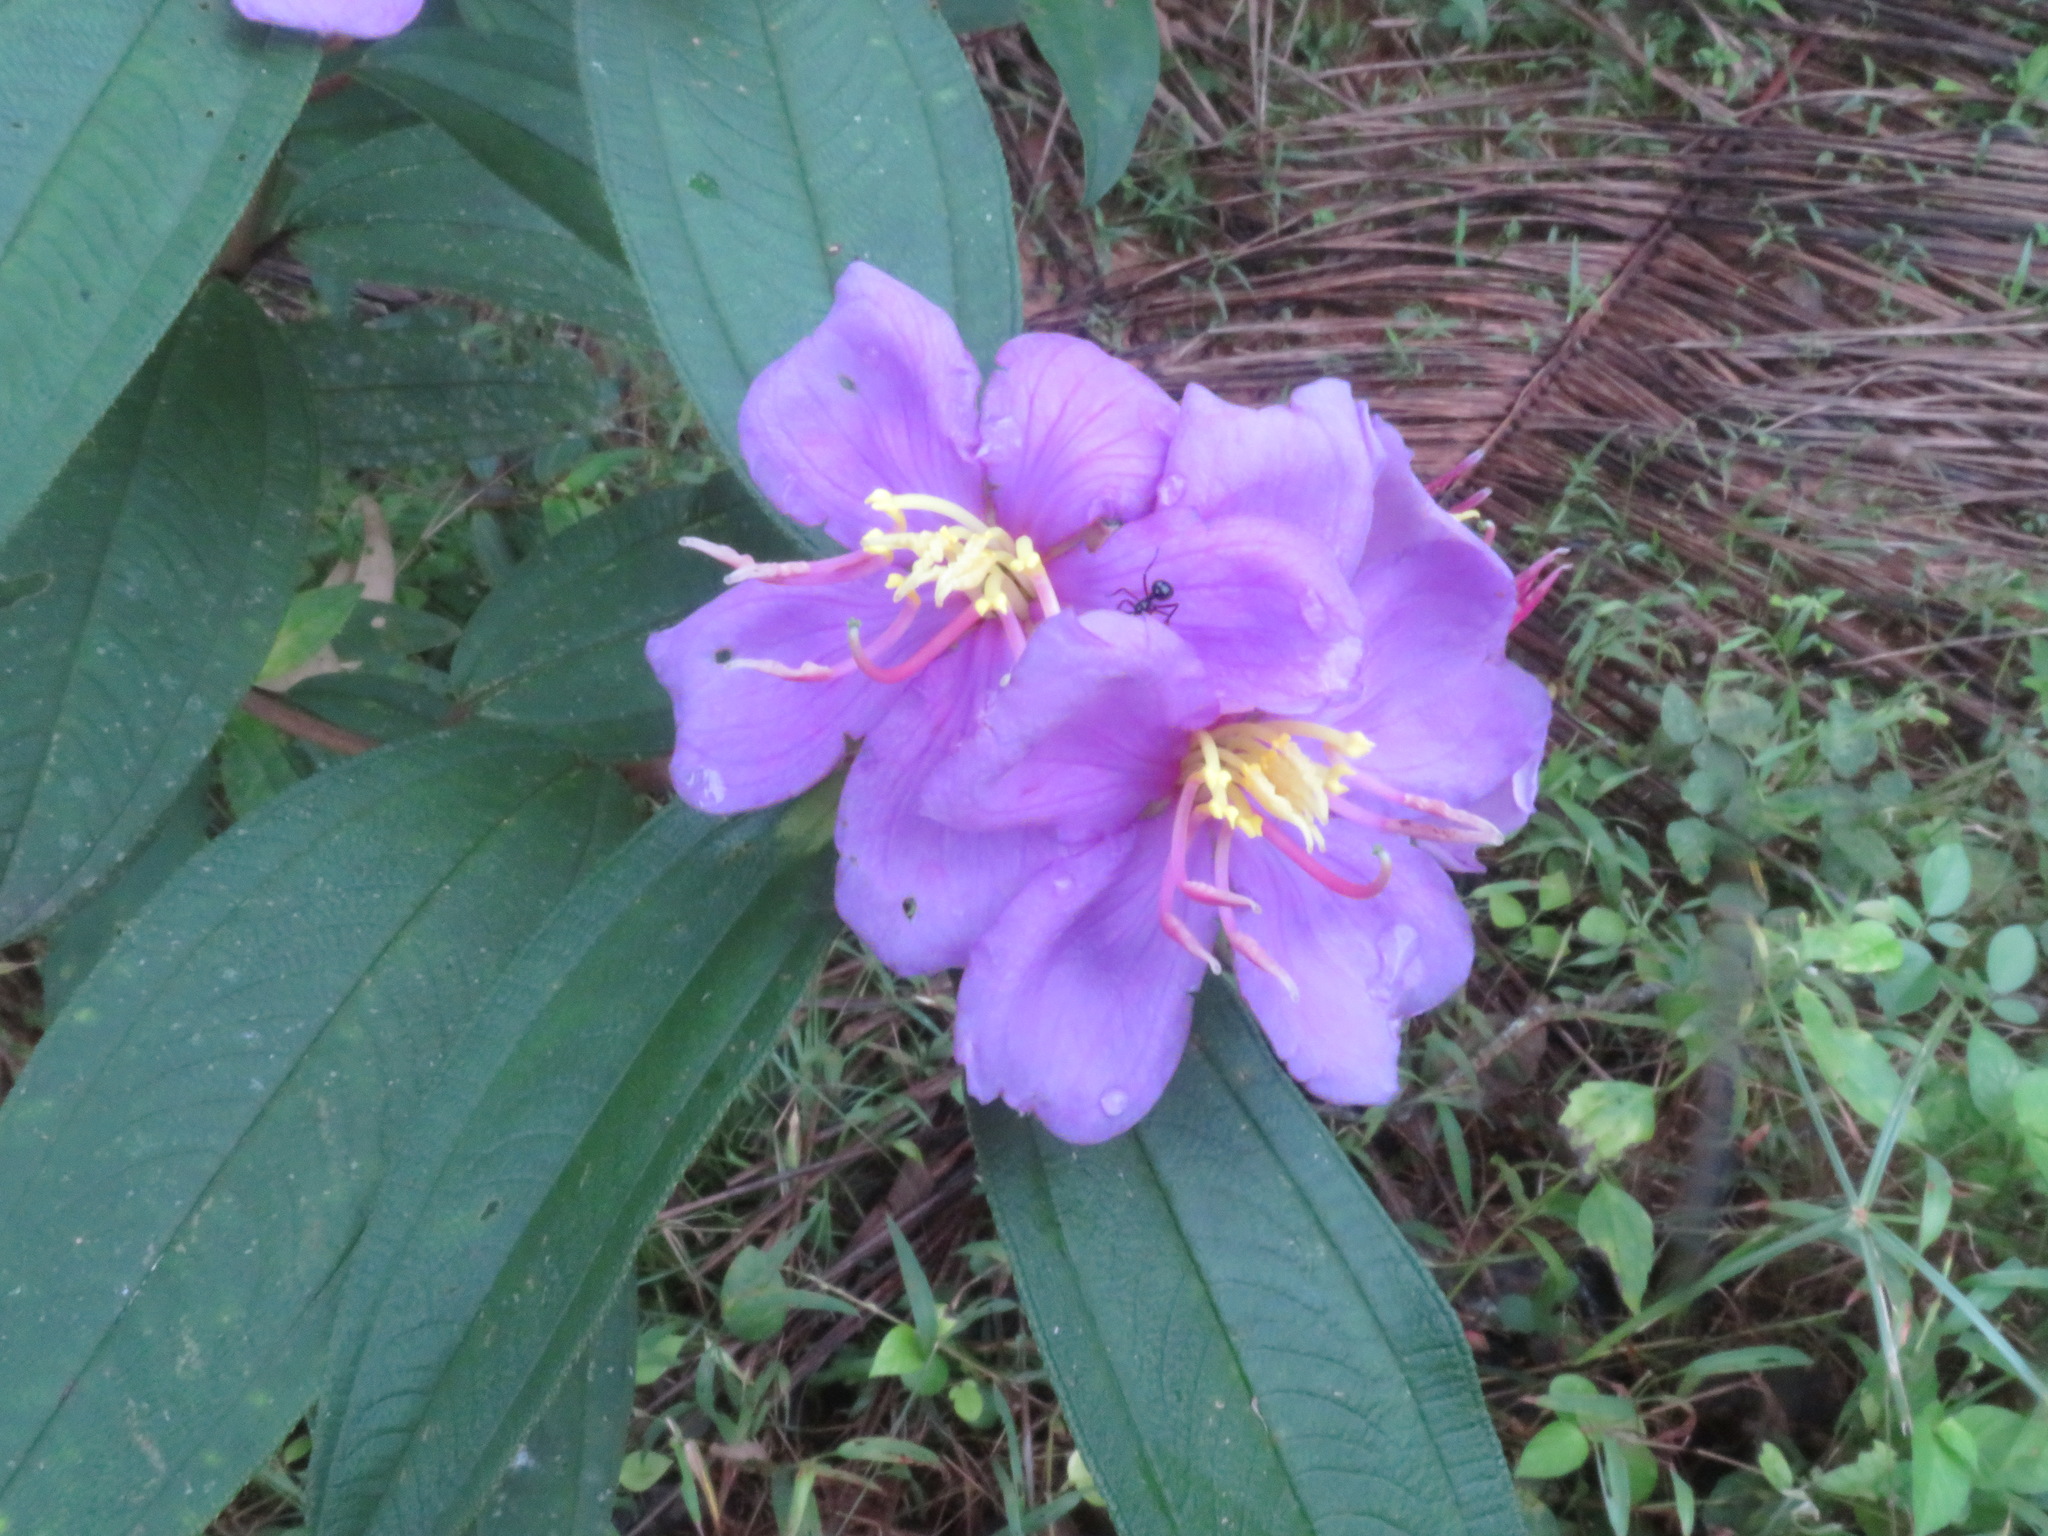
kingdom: Plantae
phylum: Tracheophyta
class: Magnoliopsida
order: Myrtales
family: Melastomataceae
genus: Melastoma
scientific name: Melastoma malabathricum
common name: Indian-rhododendron
